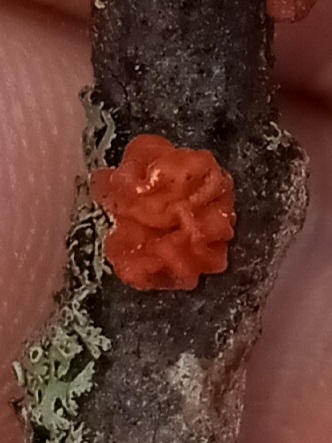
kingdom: Fungi
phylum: Basidiomycota
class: Agaricomycetes
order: Russulales
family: Peniophoraceae
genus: Peniophora
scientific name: Peniophora rufa
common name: Red tree brain fungus
